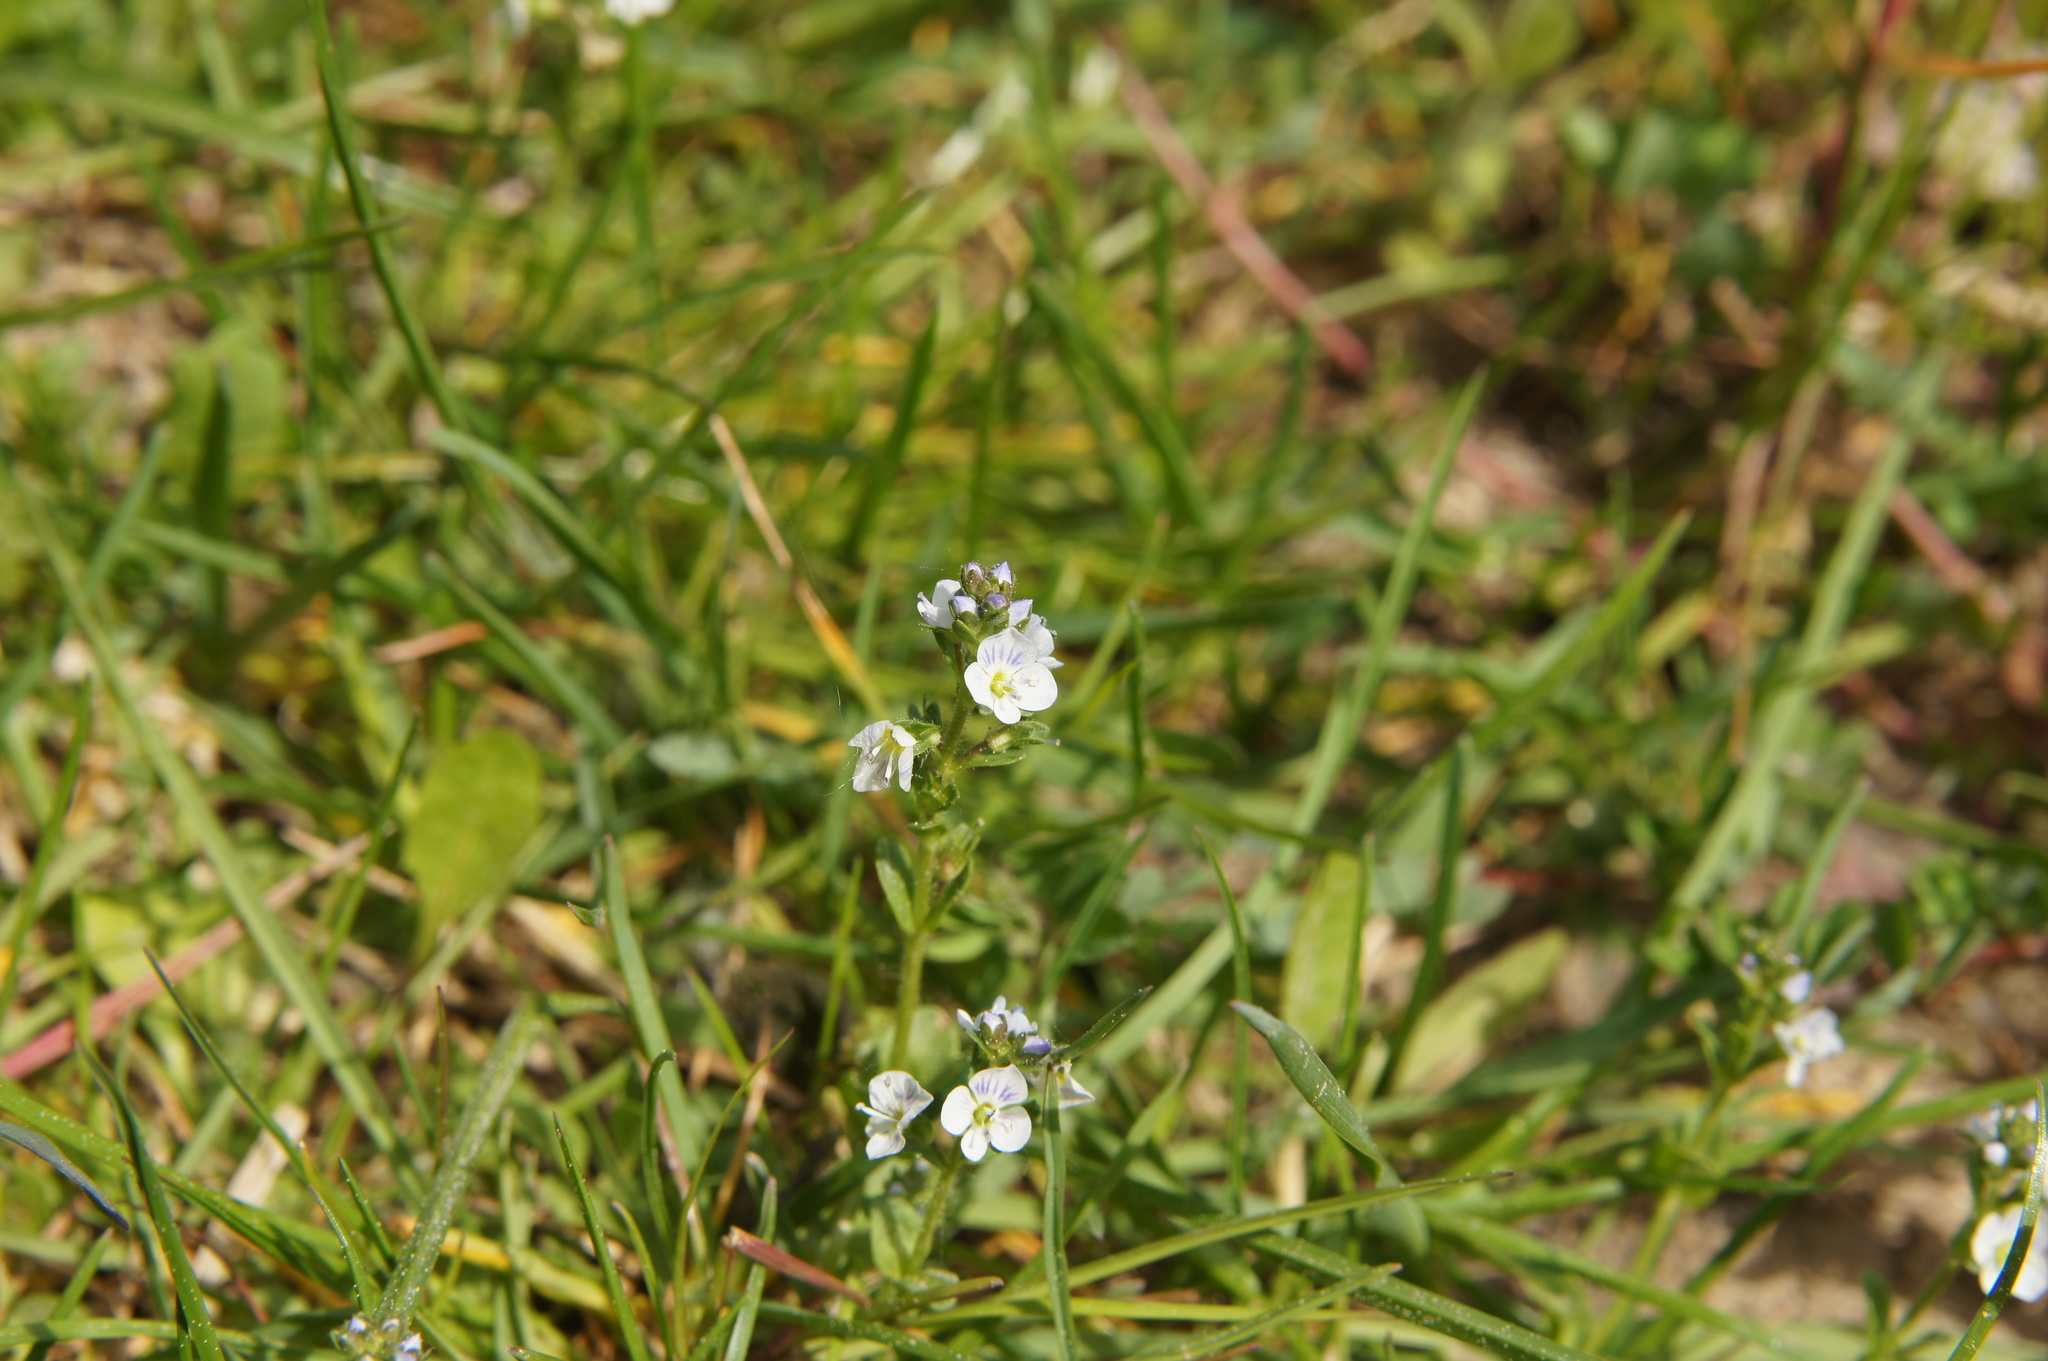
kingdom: Plantae
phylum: Tracheophyta
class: Magnoliopsida
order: Lamiales
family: Plantaginaceae
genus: Veronica
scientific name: Veronica serpyllifolia
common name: Thyme-leaved speedwell
